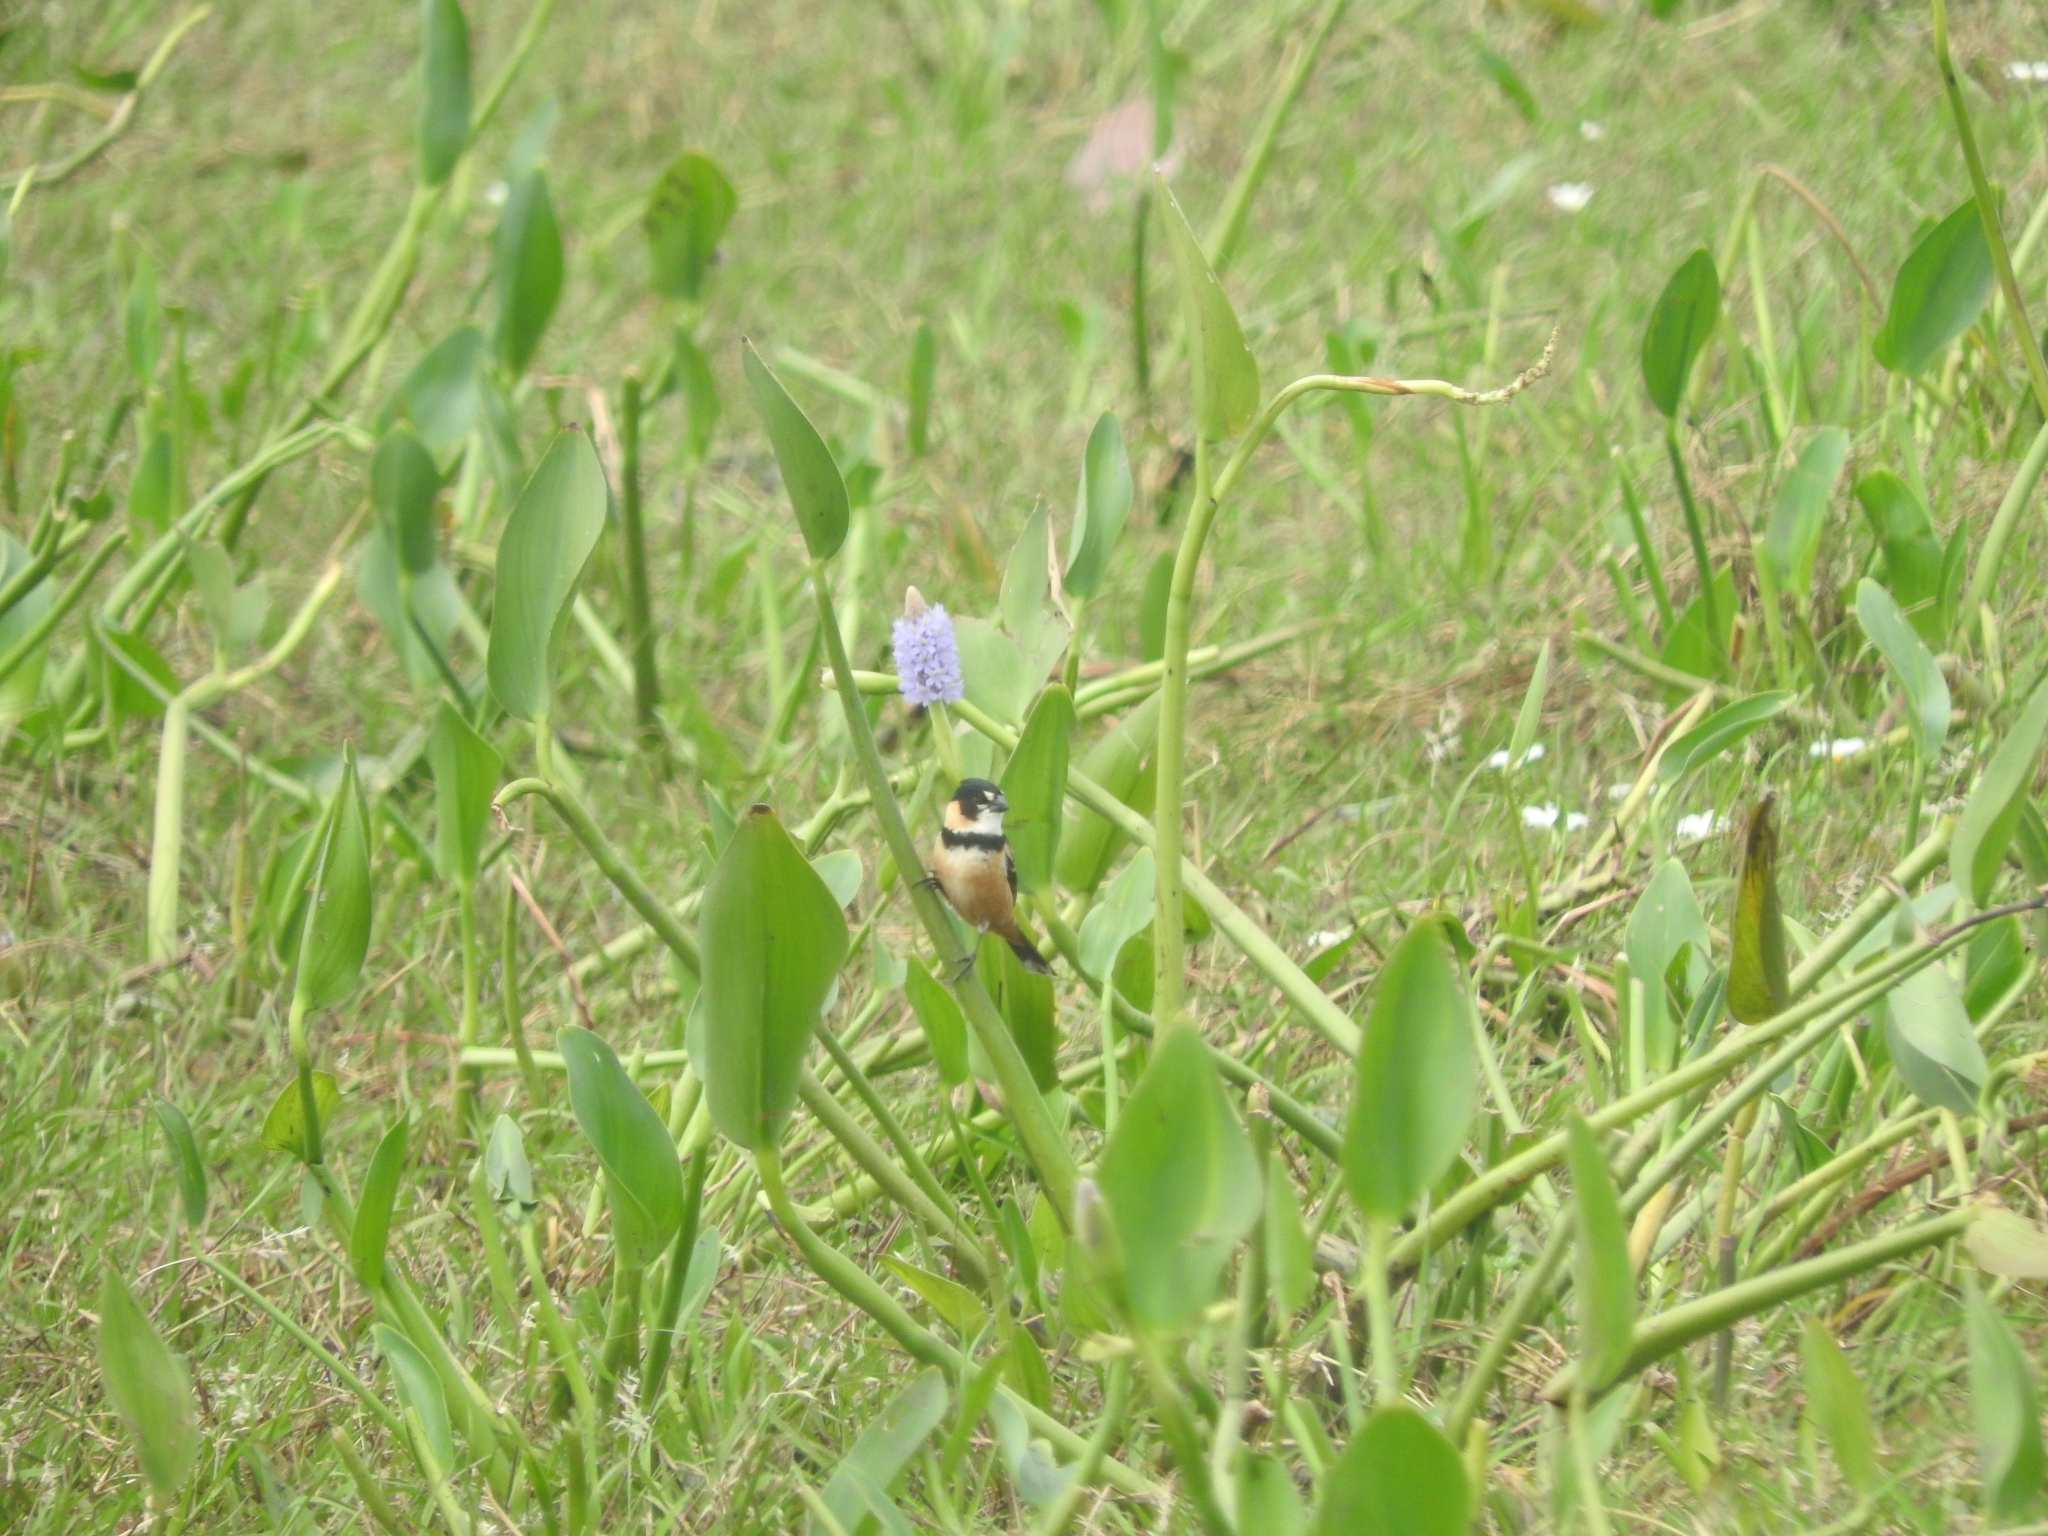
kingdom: Animalia
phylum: Chordata
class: Aves
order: Passeriformes
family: Thraupidae
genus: Sporophila
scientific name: Sporophila collaris
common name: Rusty-collared seedeater
